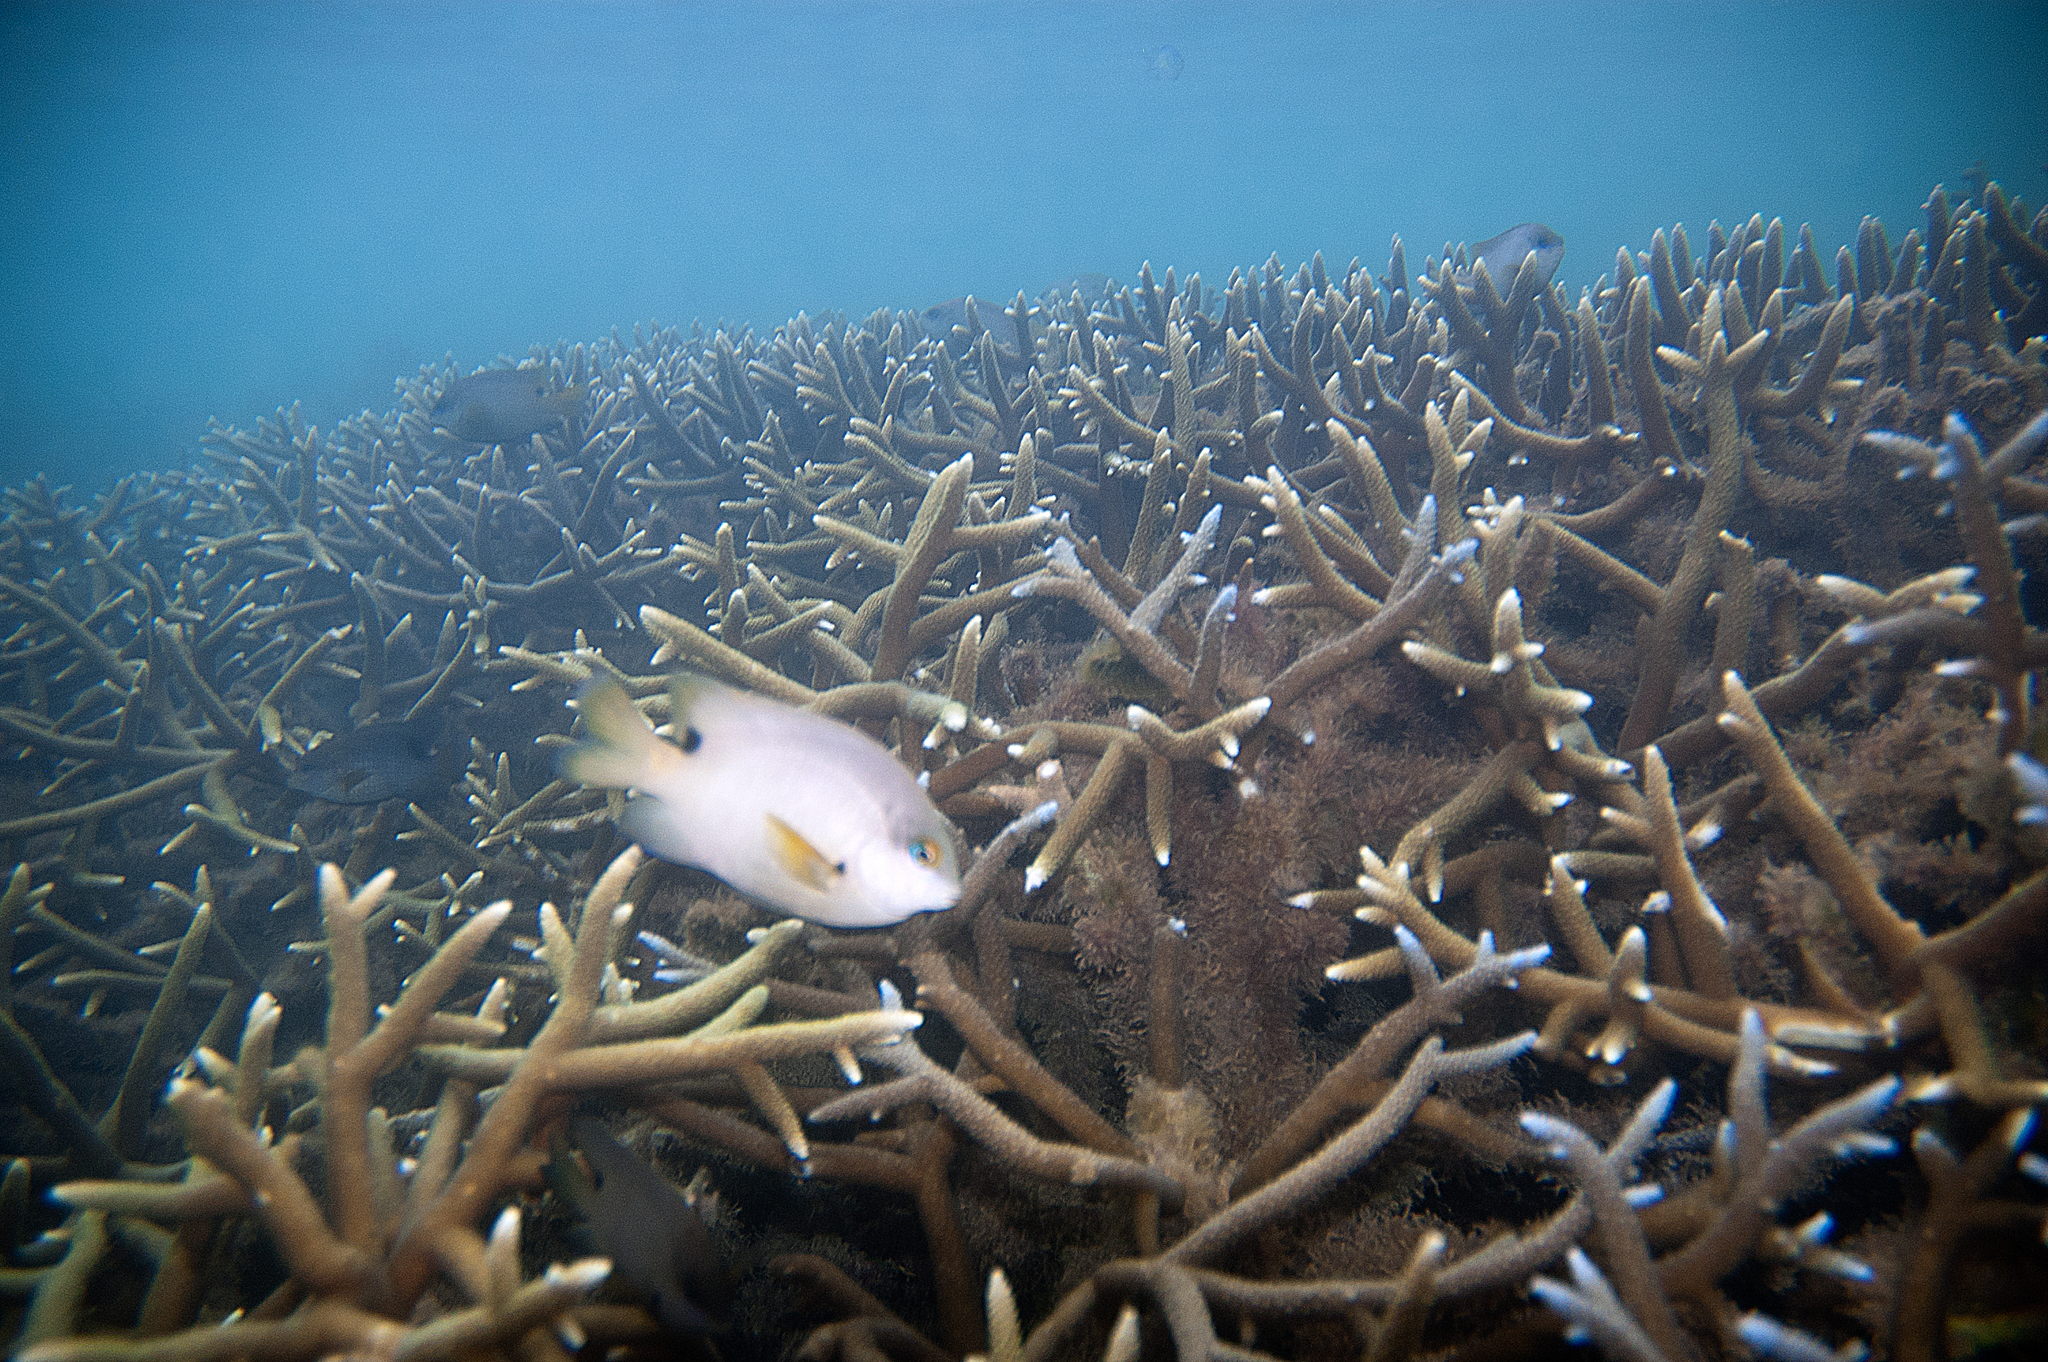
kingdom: Animalia
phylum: Chordata
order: Perciformes
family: Pomacentridae
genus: Stegastes
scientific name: Stegastes nigricans
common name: Dusky gregory
